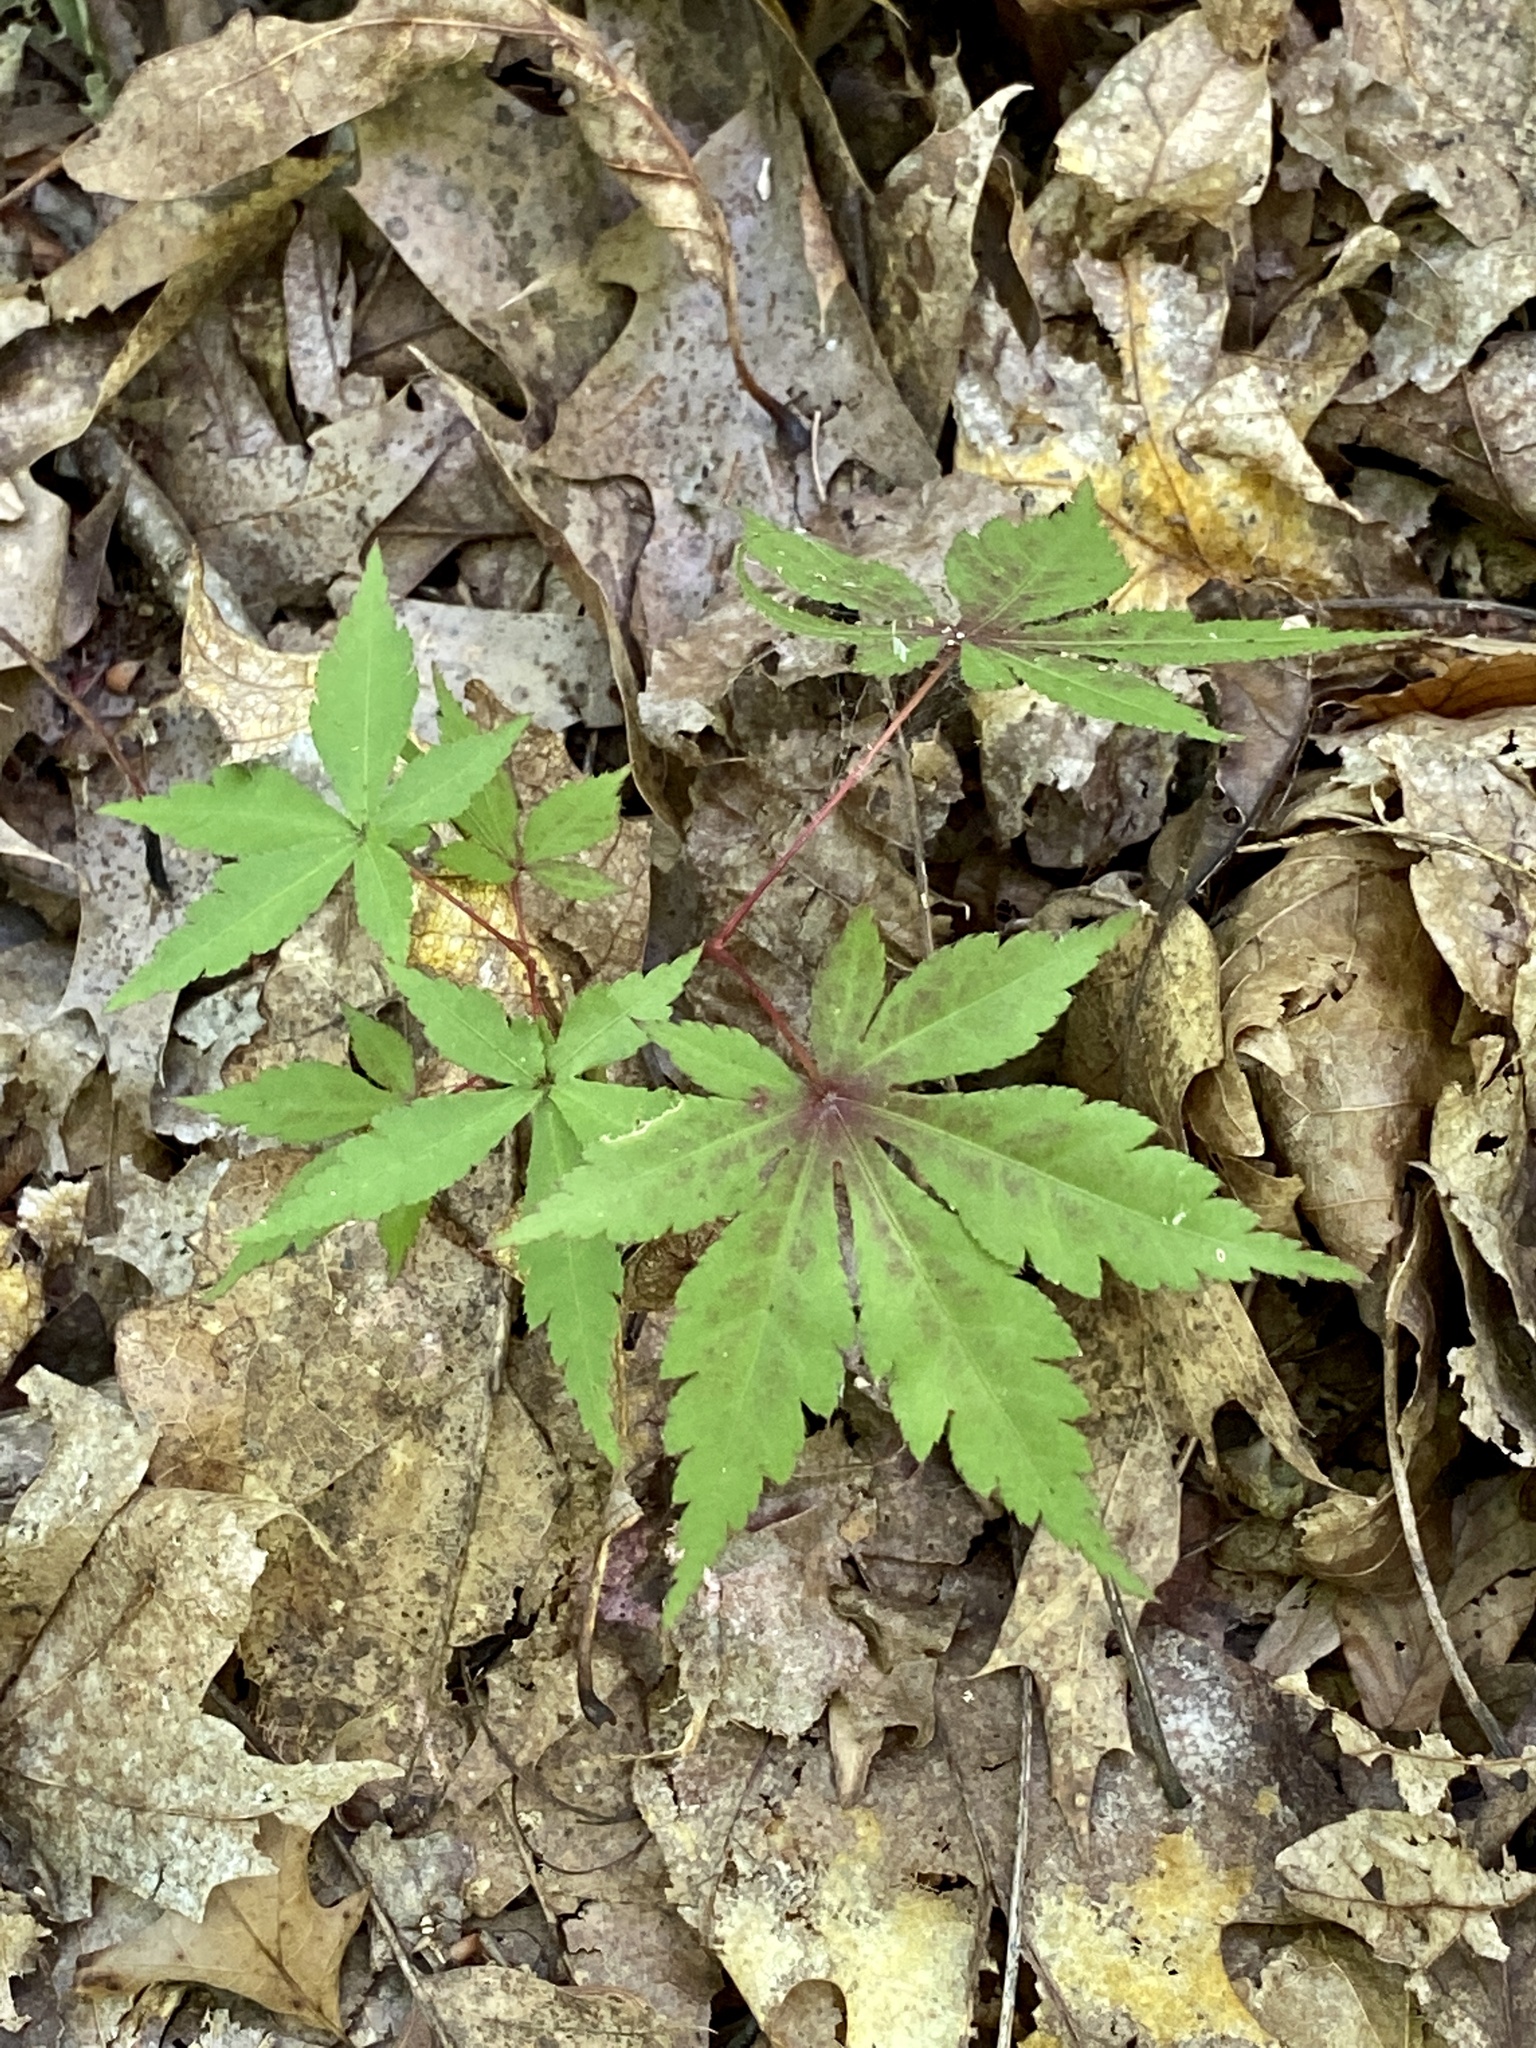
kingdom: Plantae
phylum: Tracheophyta
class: Magnoliopsida
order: Sapindales
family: Sapindaceae
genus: Acer
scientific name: Acer palmatum
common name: Japanese maple
